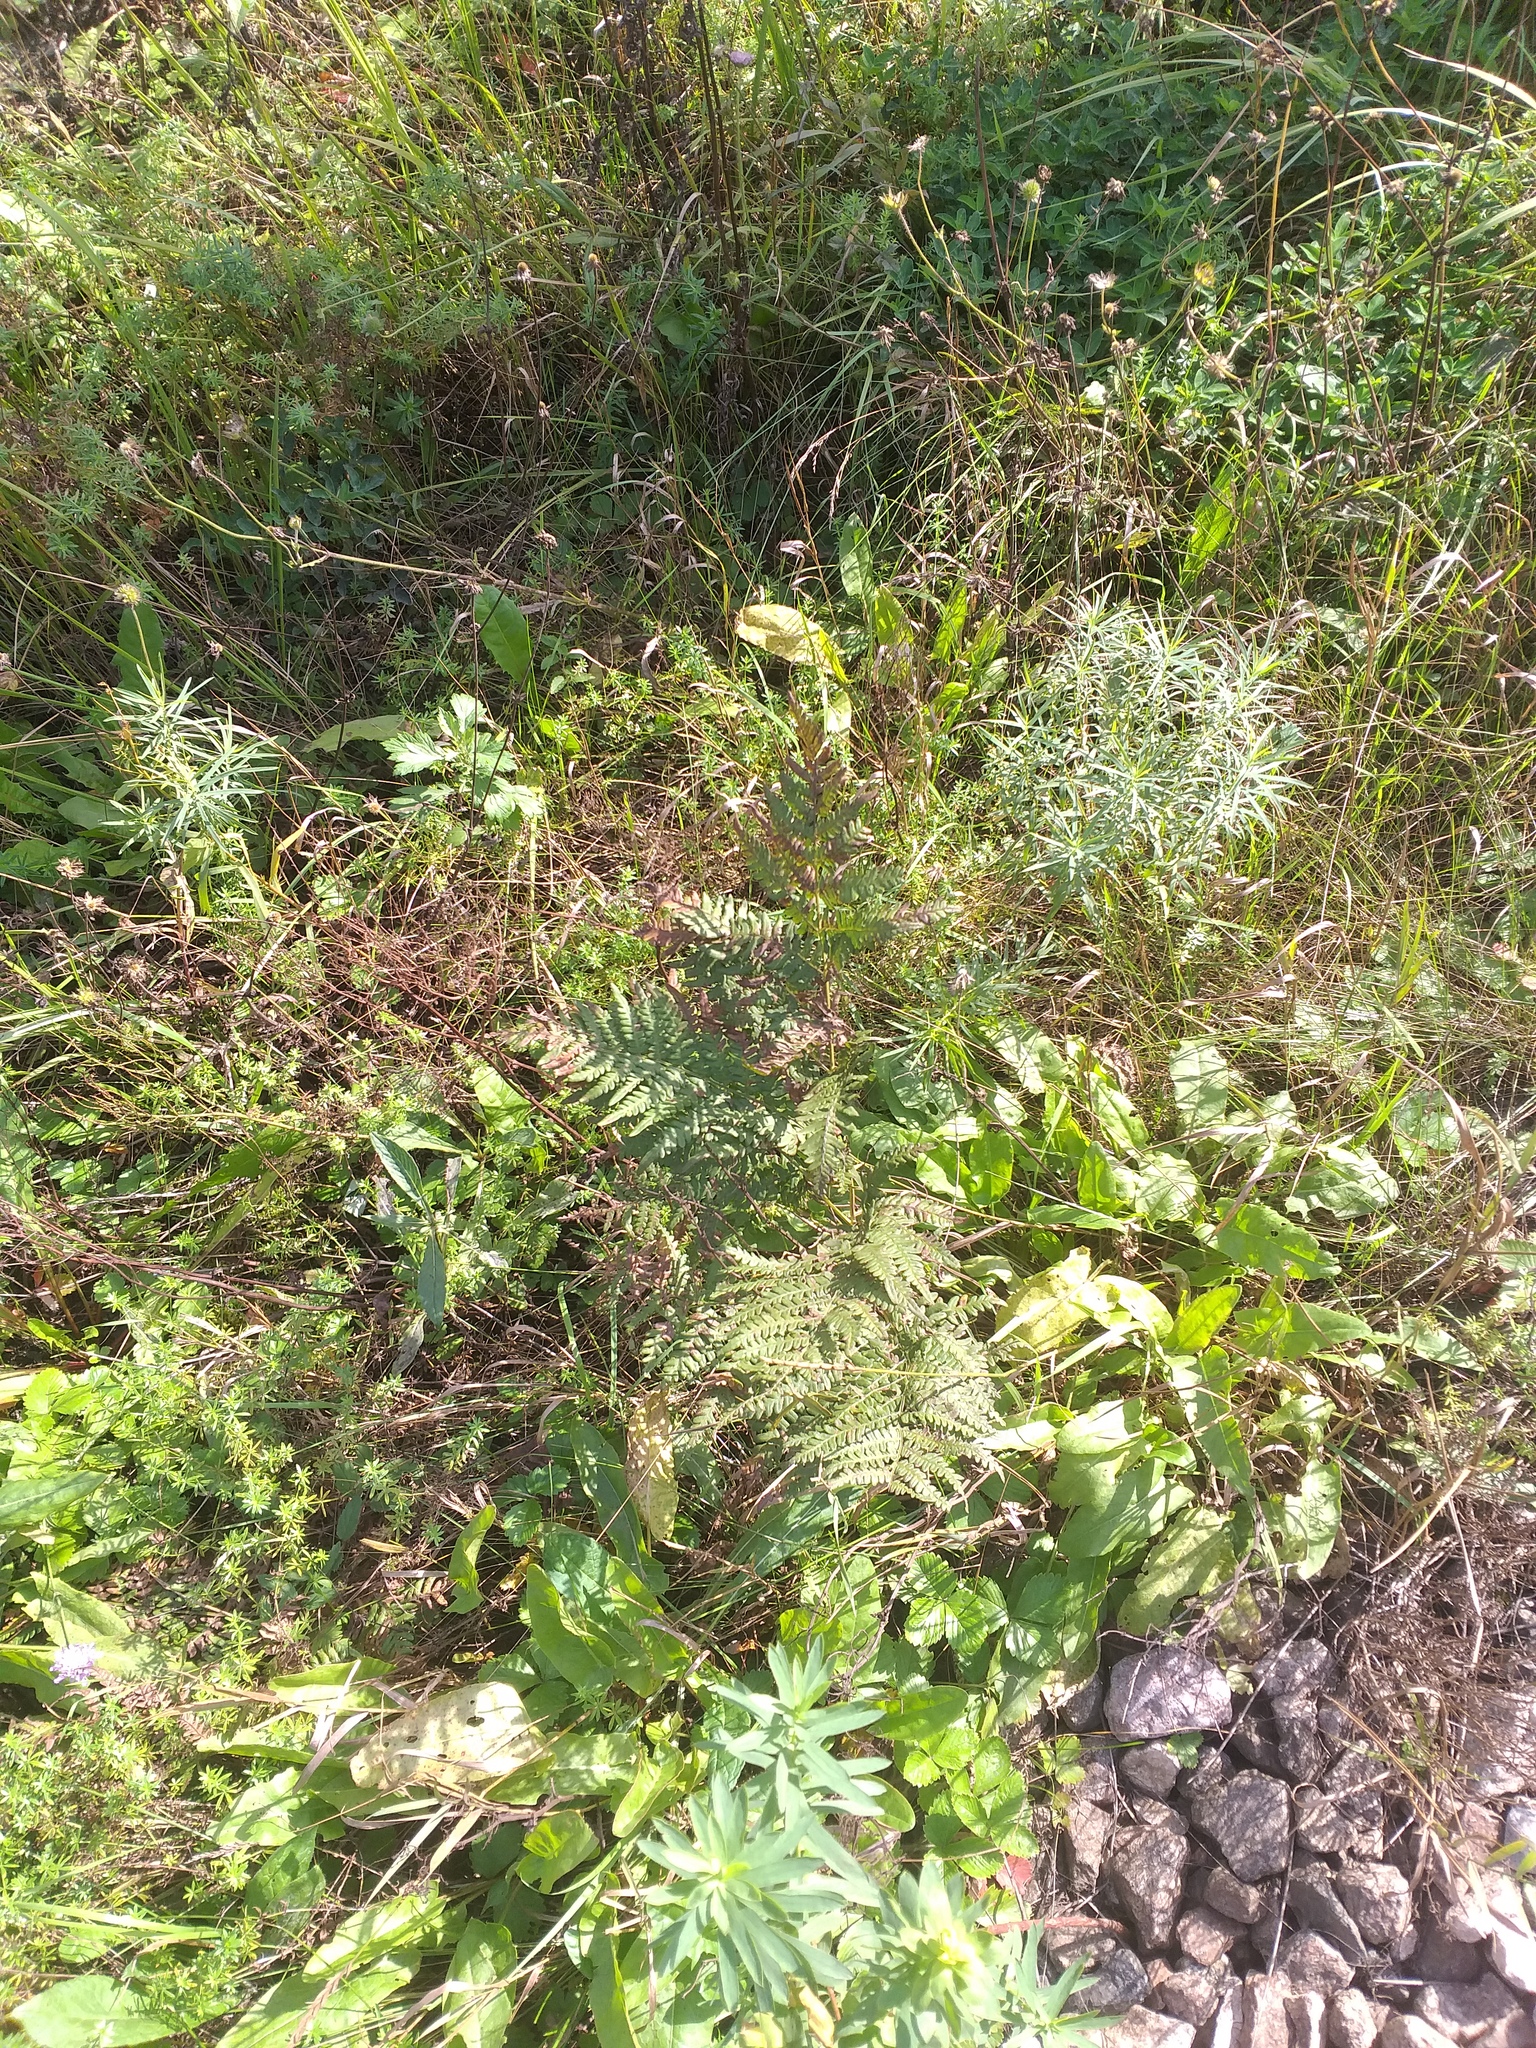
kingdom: Plantae
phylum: Tracheophyta
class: Polypodiopsida
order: Polypodiales
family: Dennstaedtiaceae
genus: Pteridium
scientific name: Pteridium aquilinum
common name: Bracken
